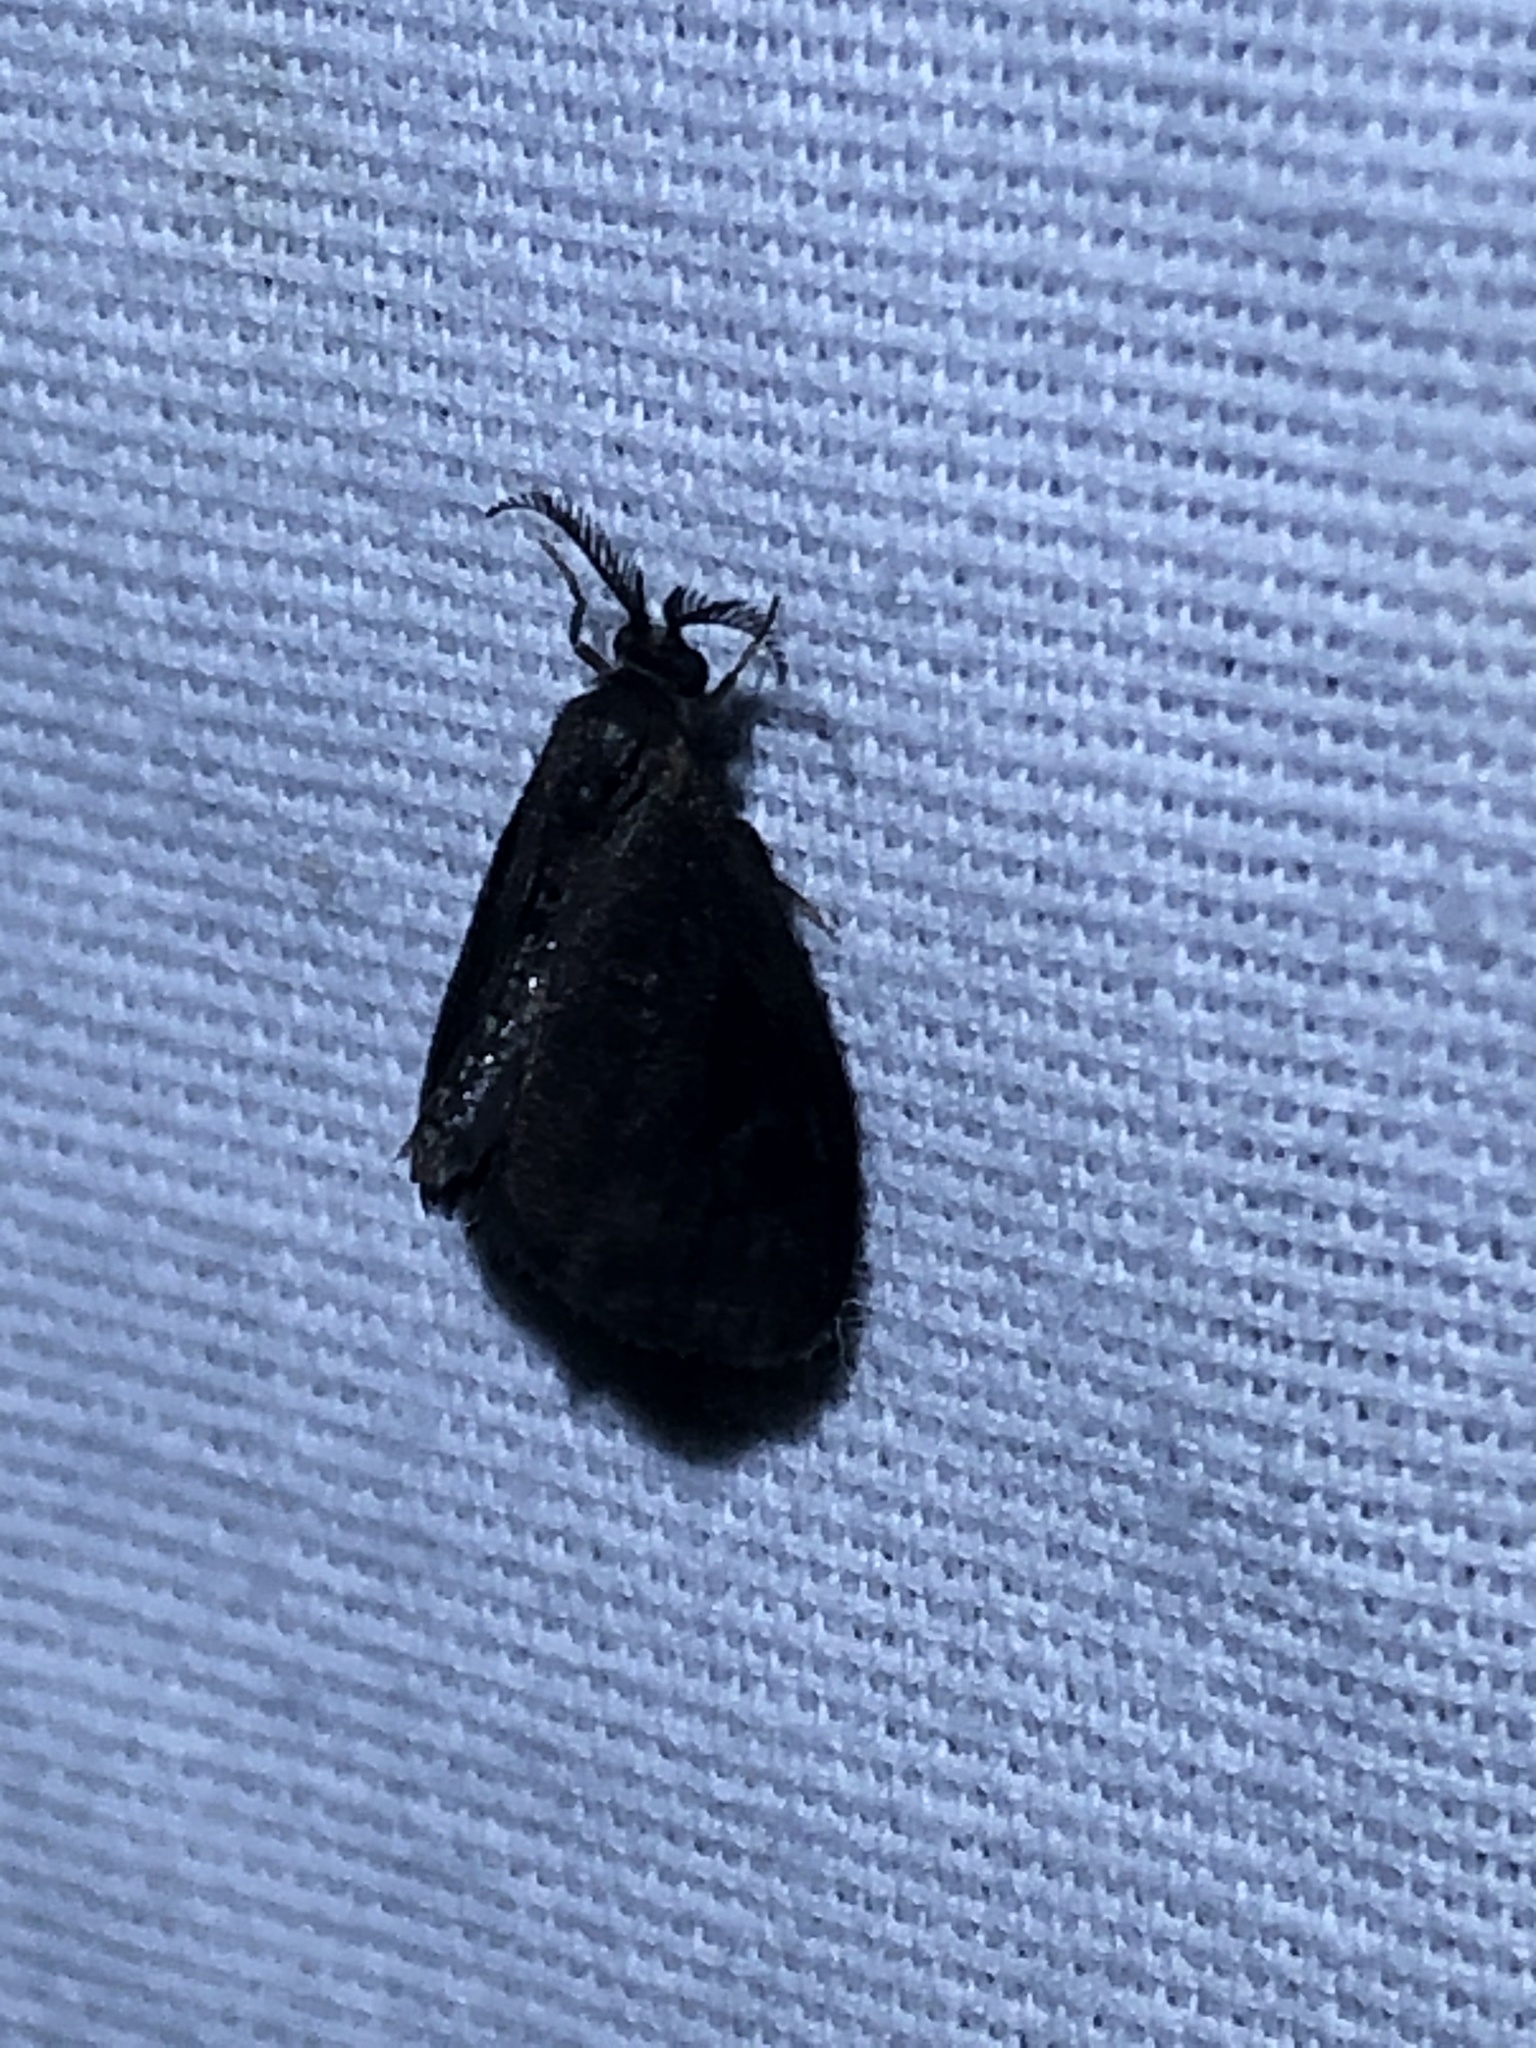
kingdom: Animalia
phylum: Arthropoda
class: Insecta
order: Lepidoptera
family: Psychidae
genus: Cryptothelea
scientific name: Cryptothelea gloverii
